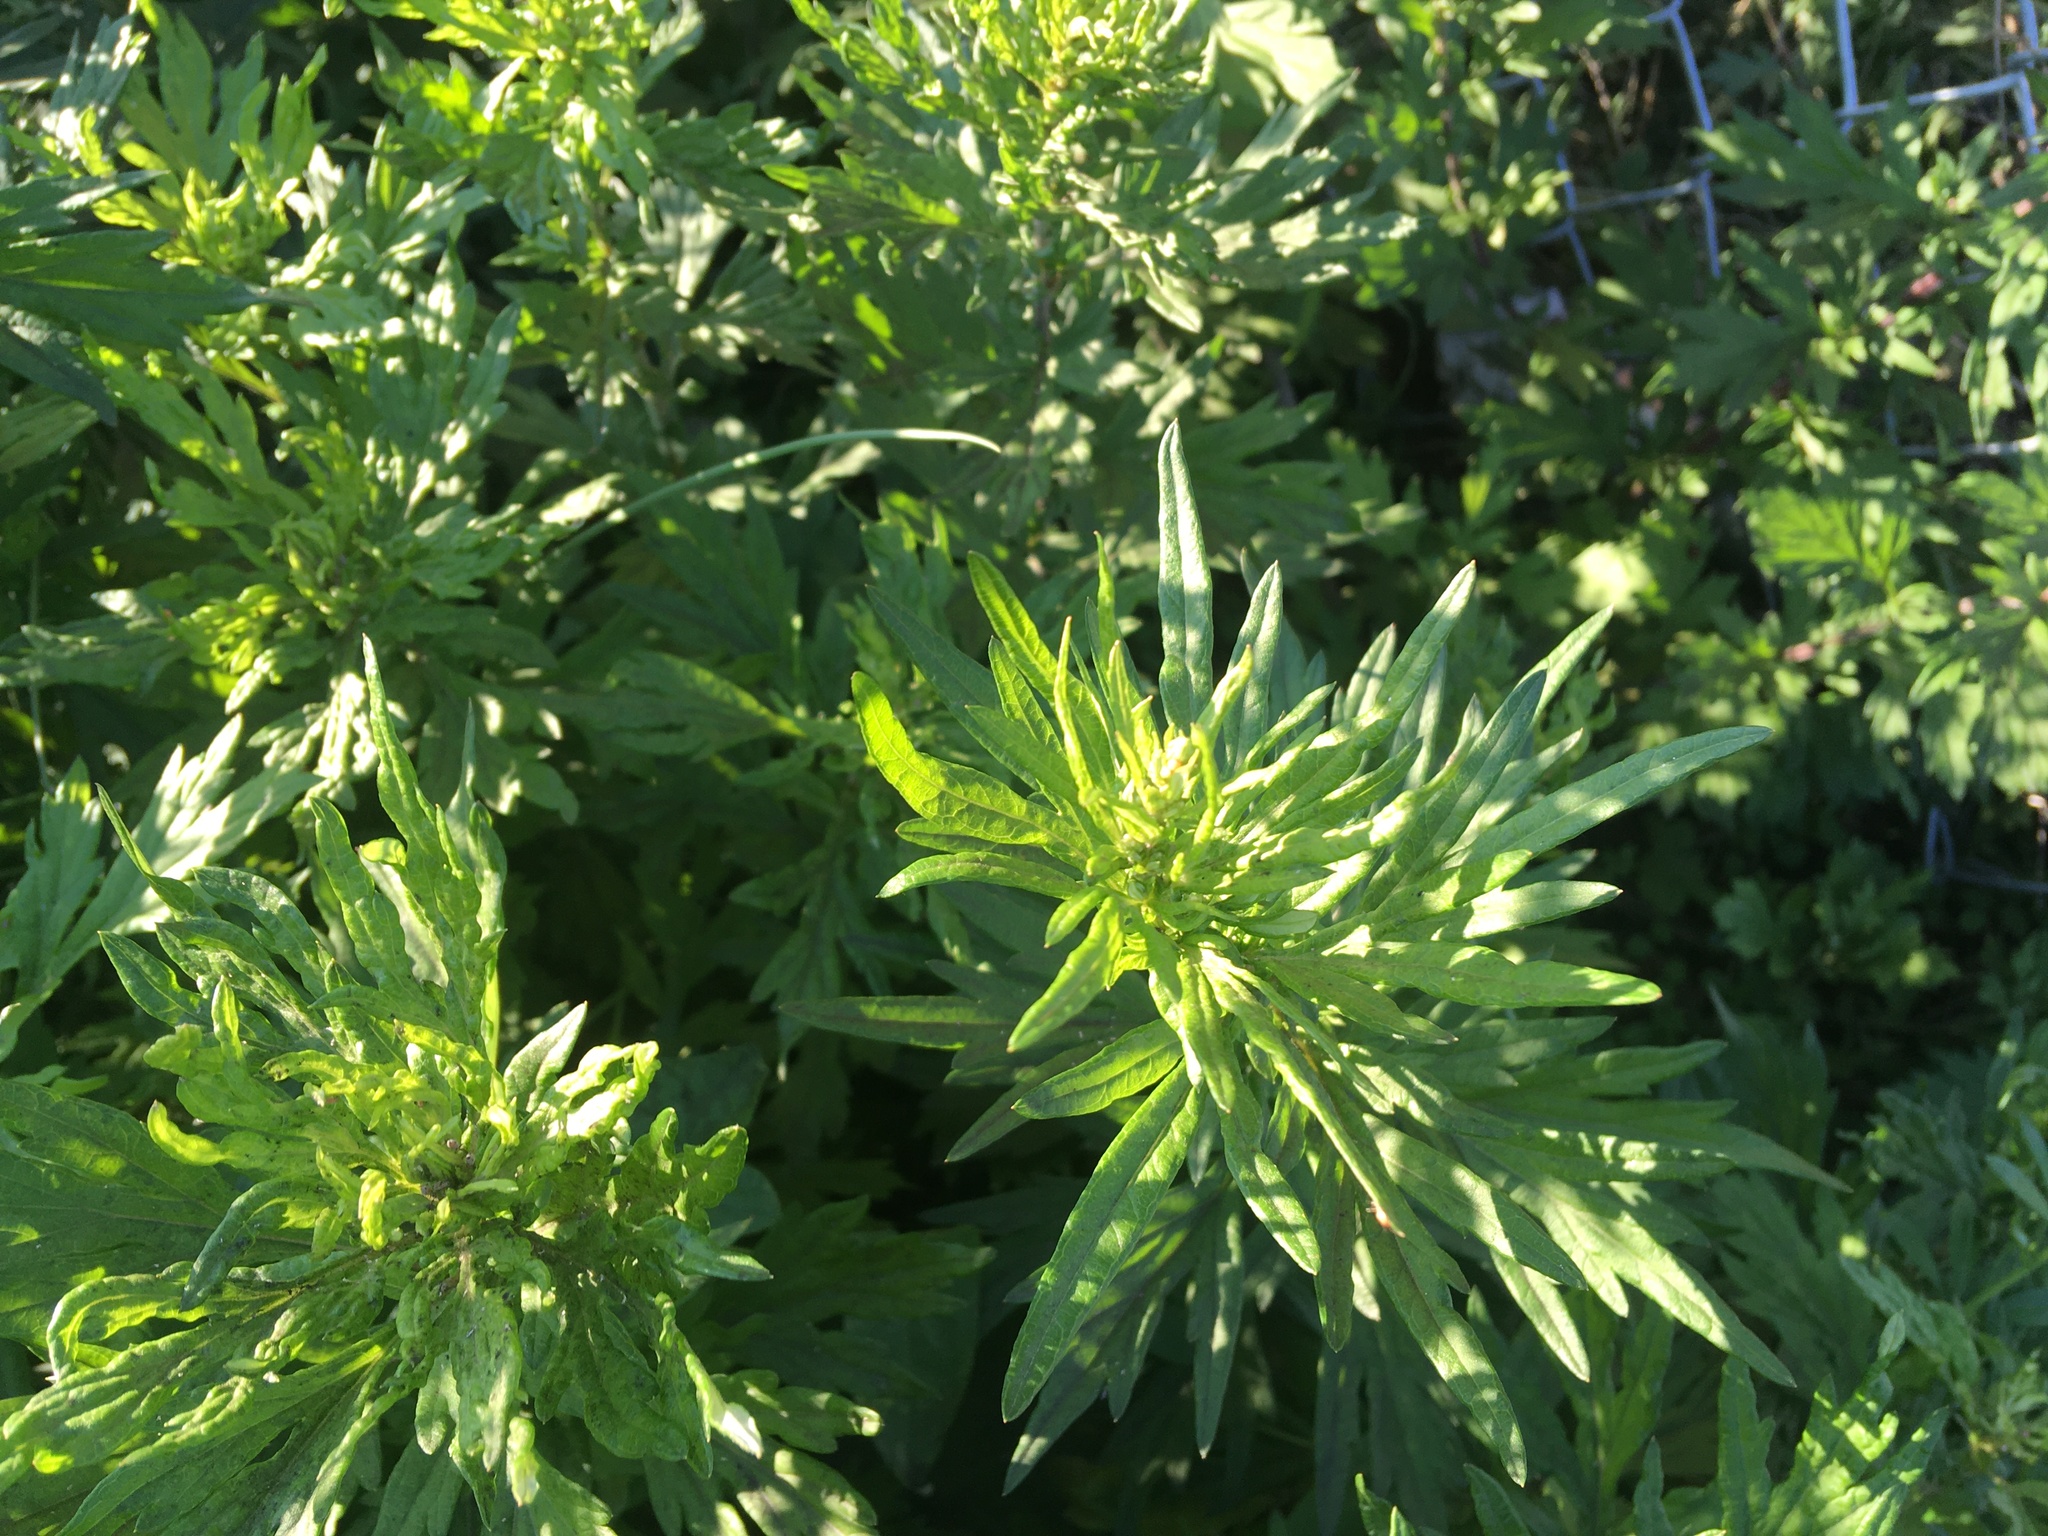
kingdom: Plantae
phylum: Tracheophyta
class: Magnoliopsida
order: Asterales
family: Asteraceae
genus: Artemisia
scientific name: Artemisia vulgaris
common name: Mugwort
